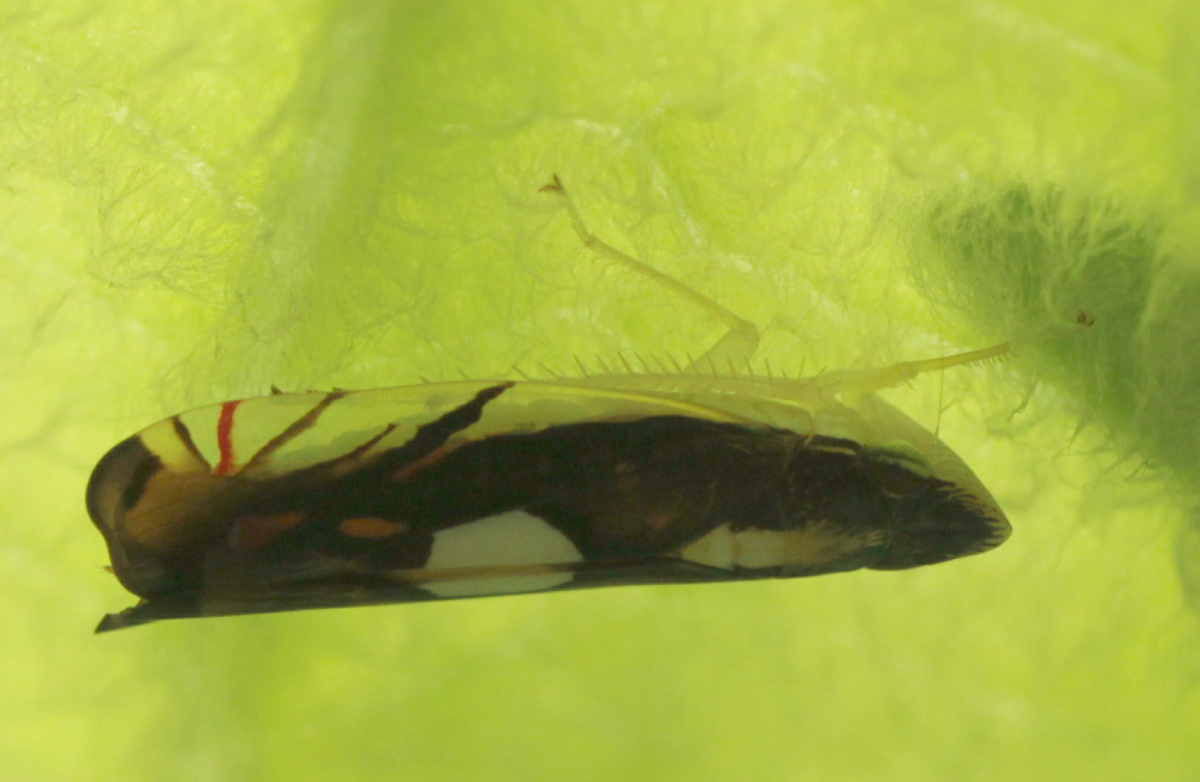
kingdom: Animalia
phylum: Arthropoda
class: Insecta
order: Hemiptera
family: Cicadellidae
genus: Diedrocephala
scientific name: Diedrocephala variegata
